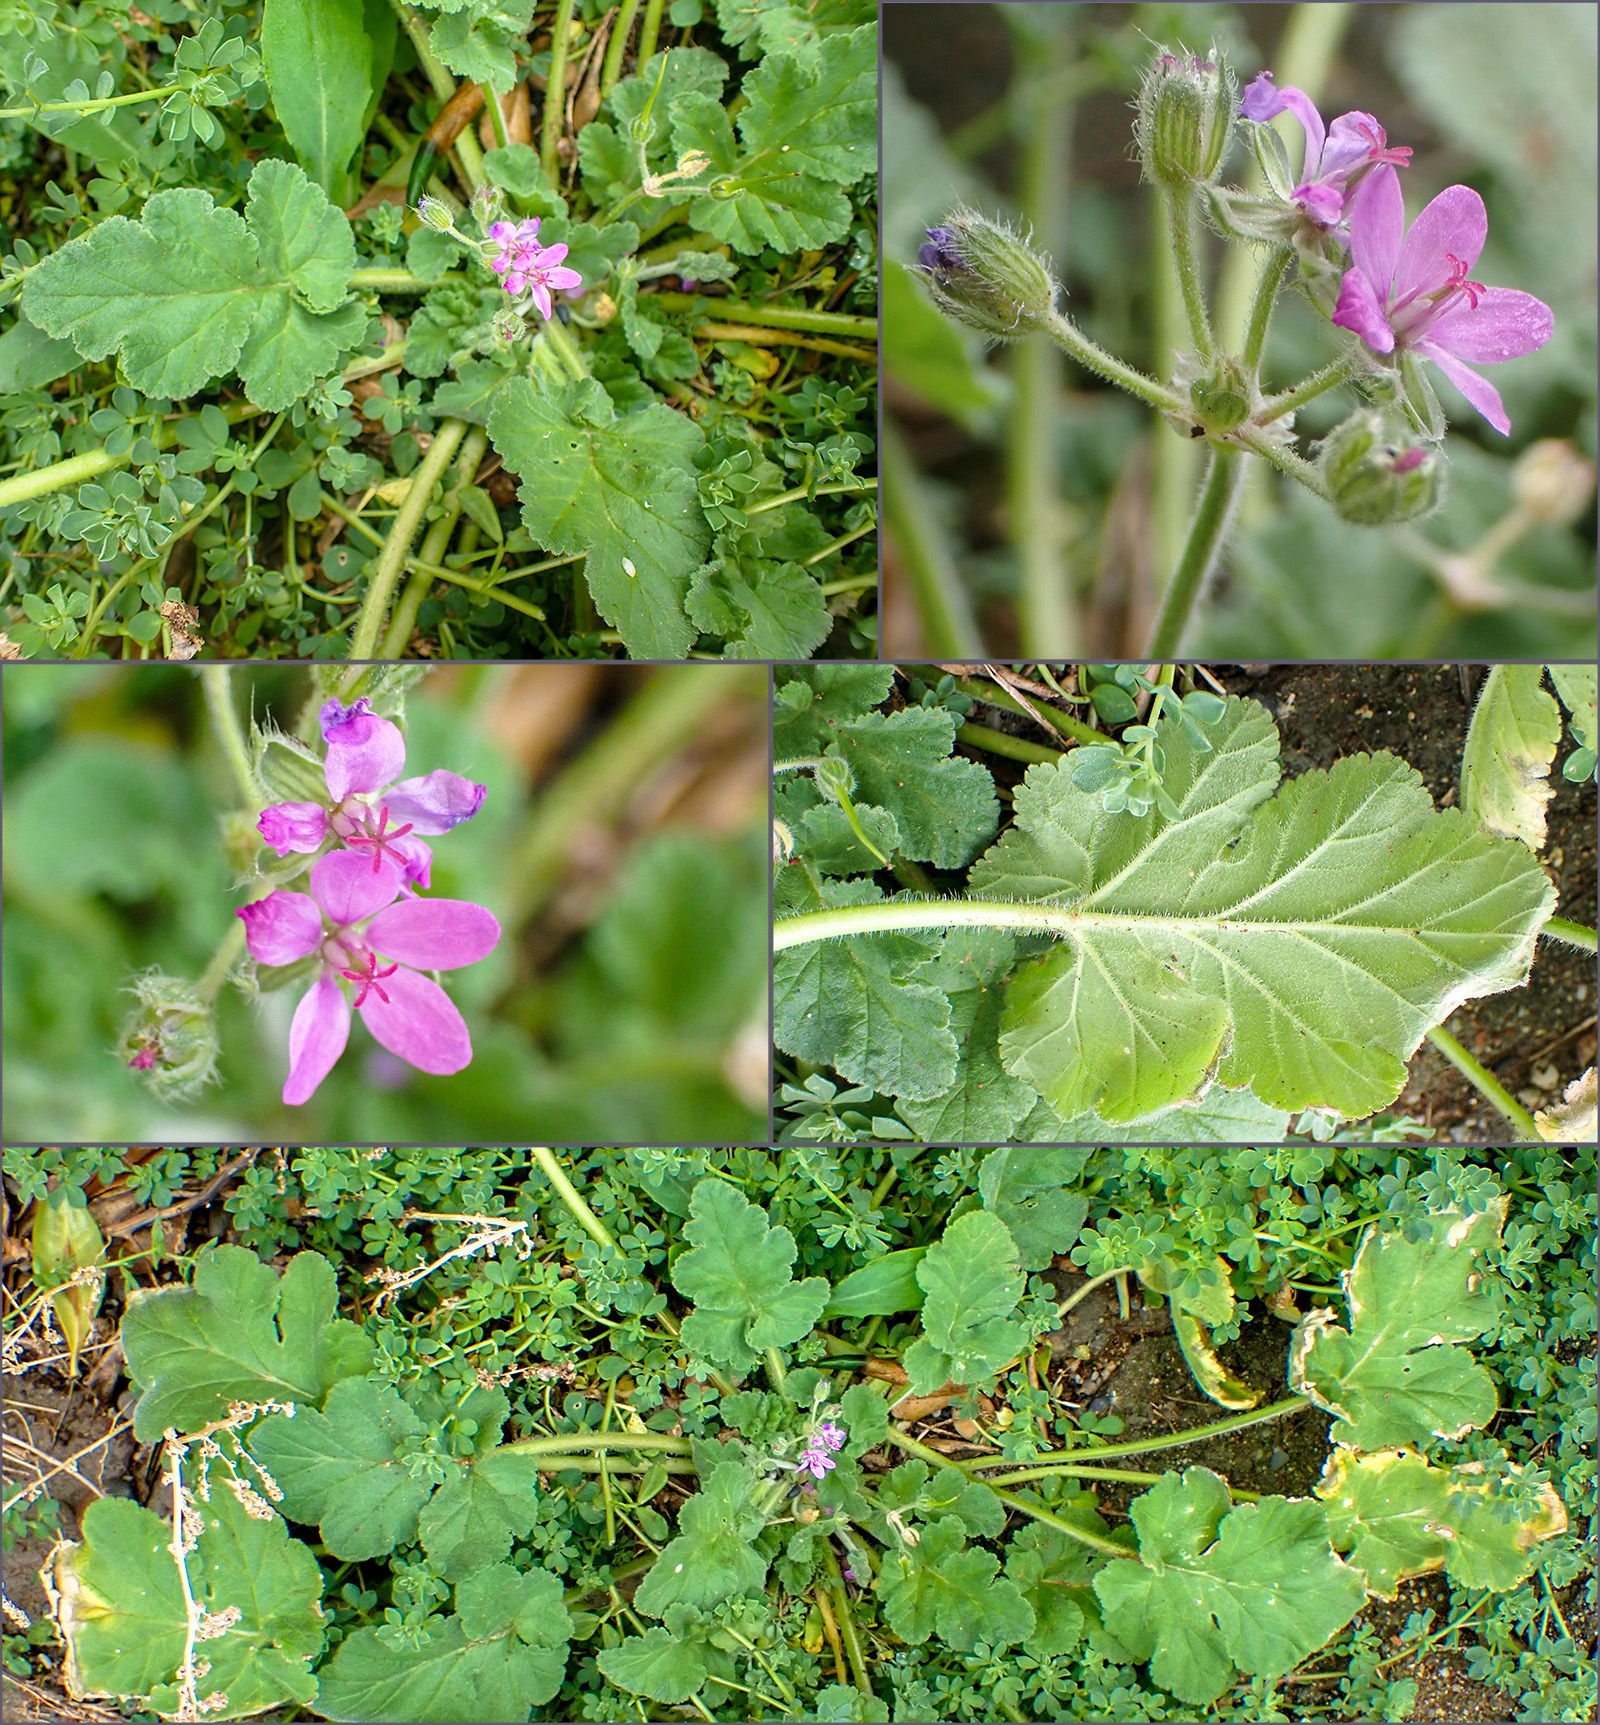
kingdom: Plantae
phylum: Tracheophyta
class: Magnoliopsida
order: Geraniales
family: Geraniaceae
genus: Erodium
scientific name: Erodium malacoides
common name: Soft stork's-bill
